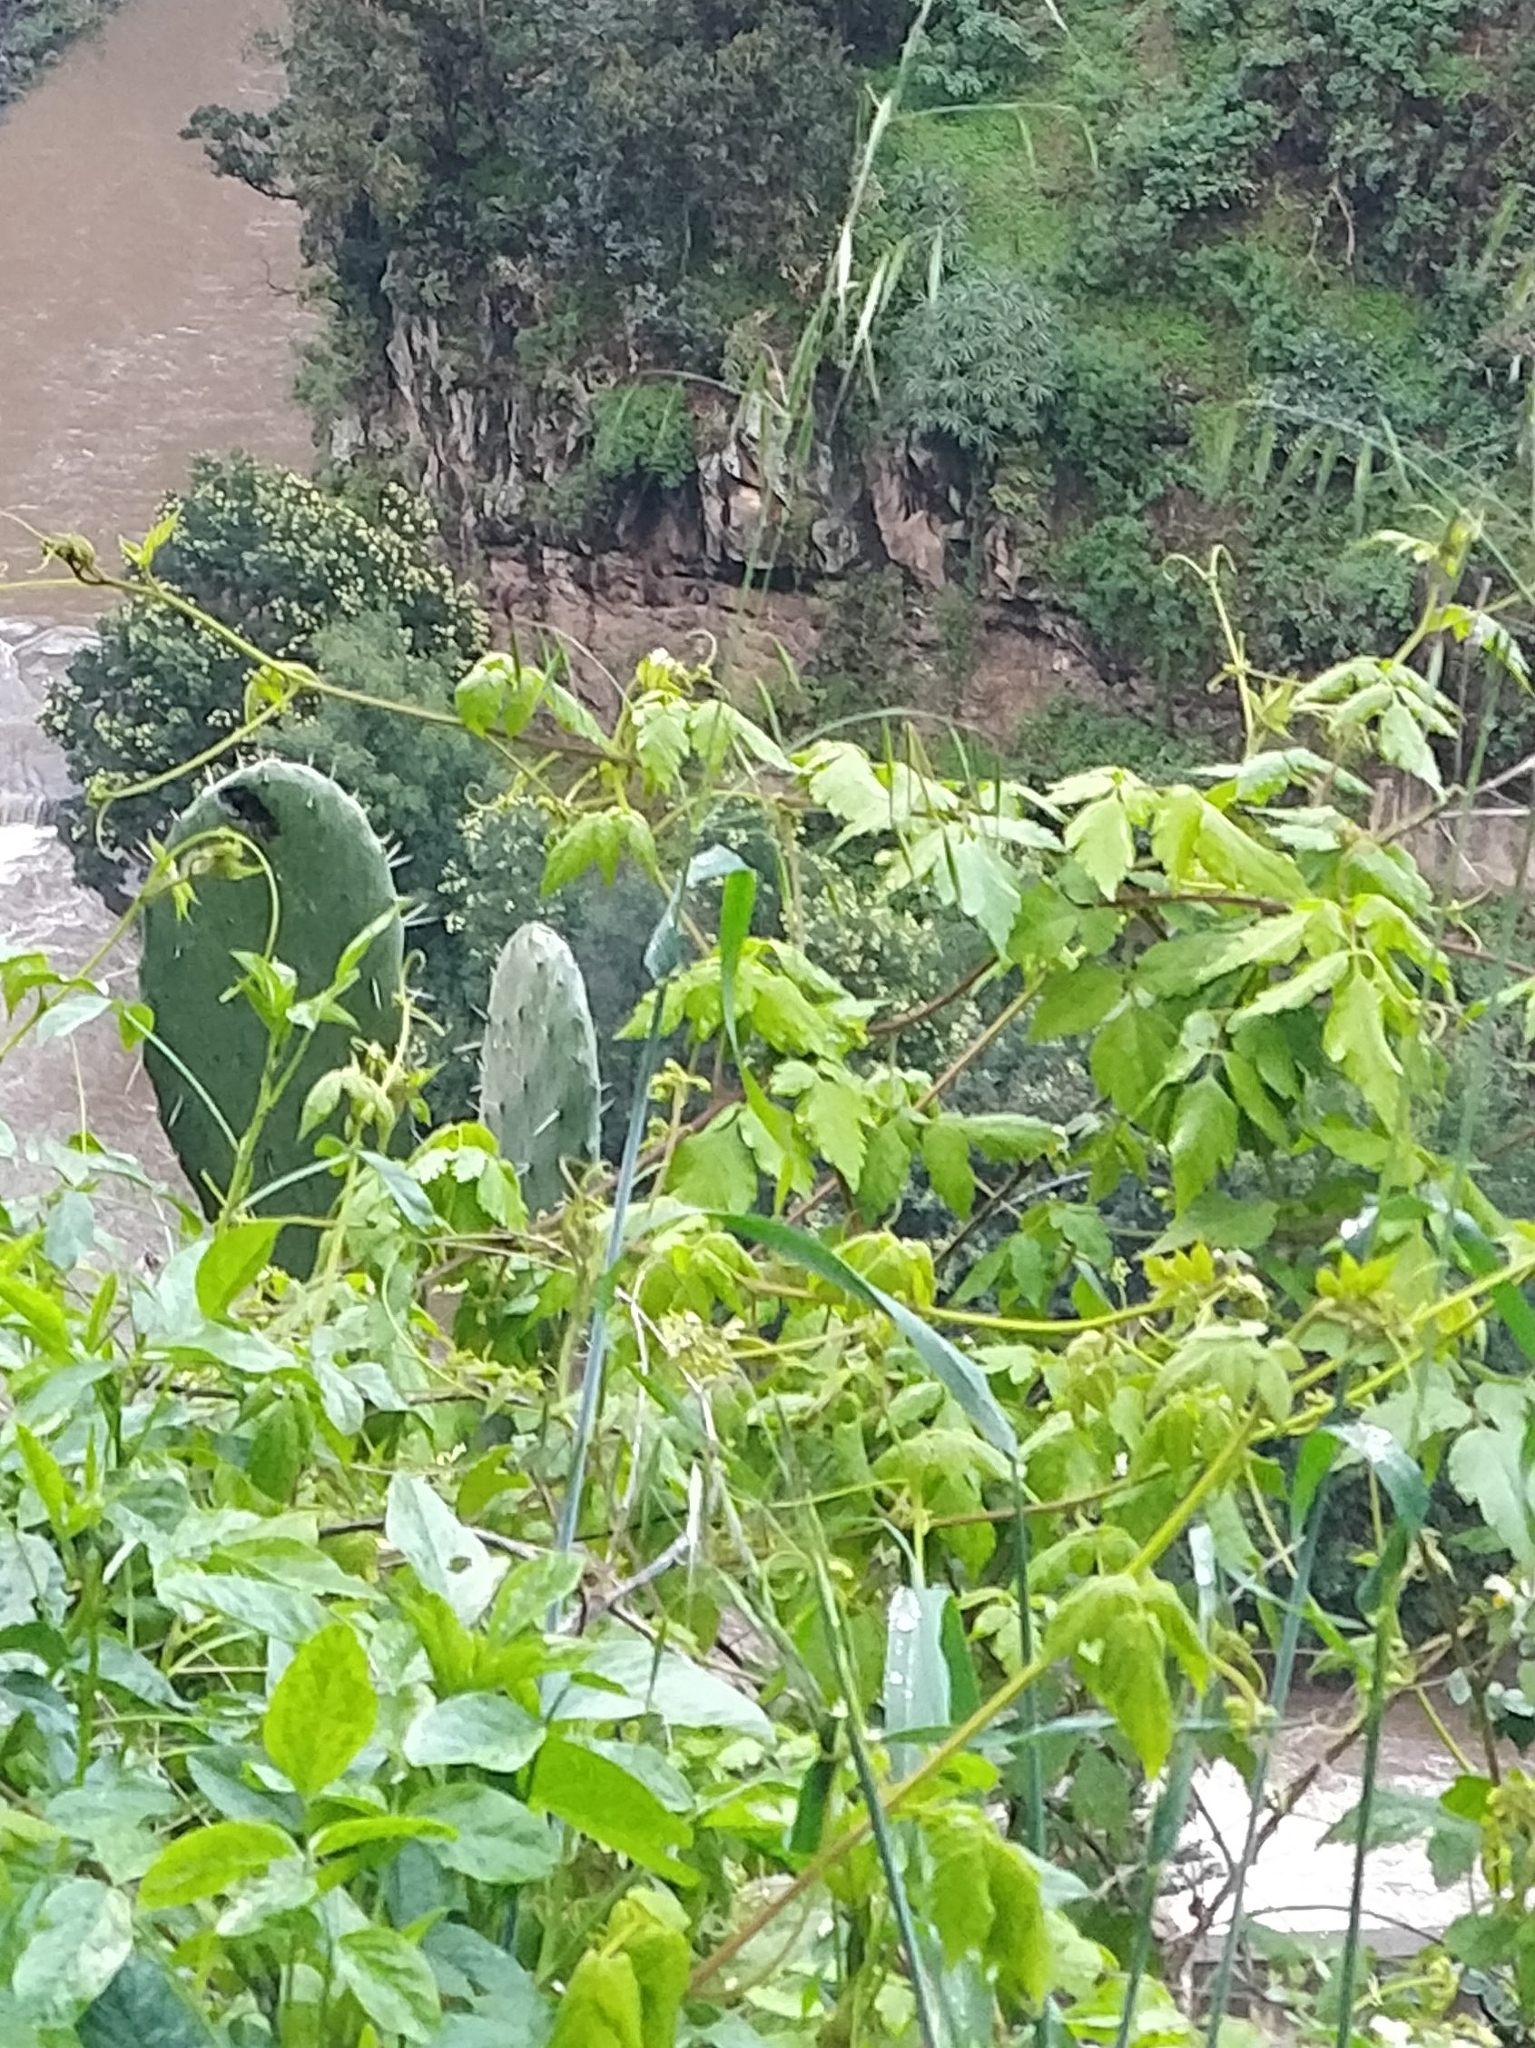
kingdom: Plantae
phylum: Tracheophyta
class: Magnoliopsida
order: Sapindales
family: Sapindaceae
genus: Cardiospermum
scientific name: Cardiospermum grandiflorum
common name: Balloon vine
